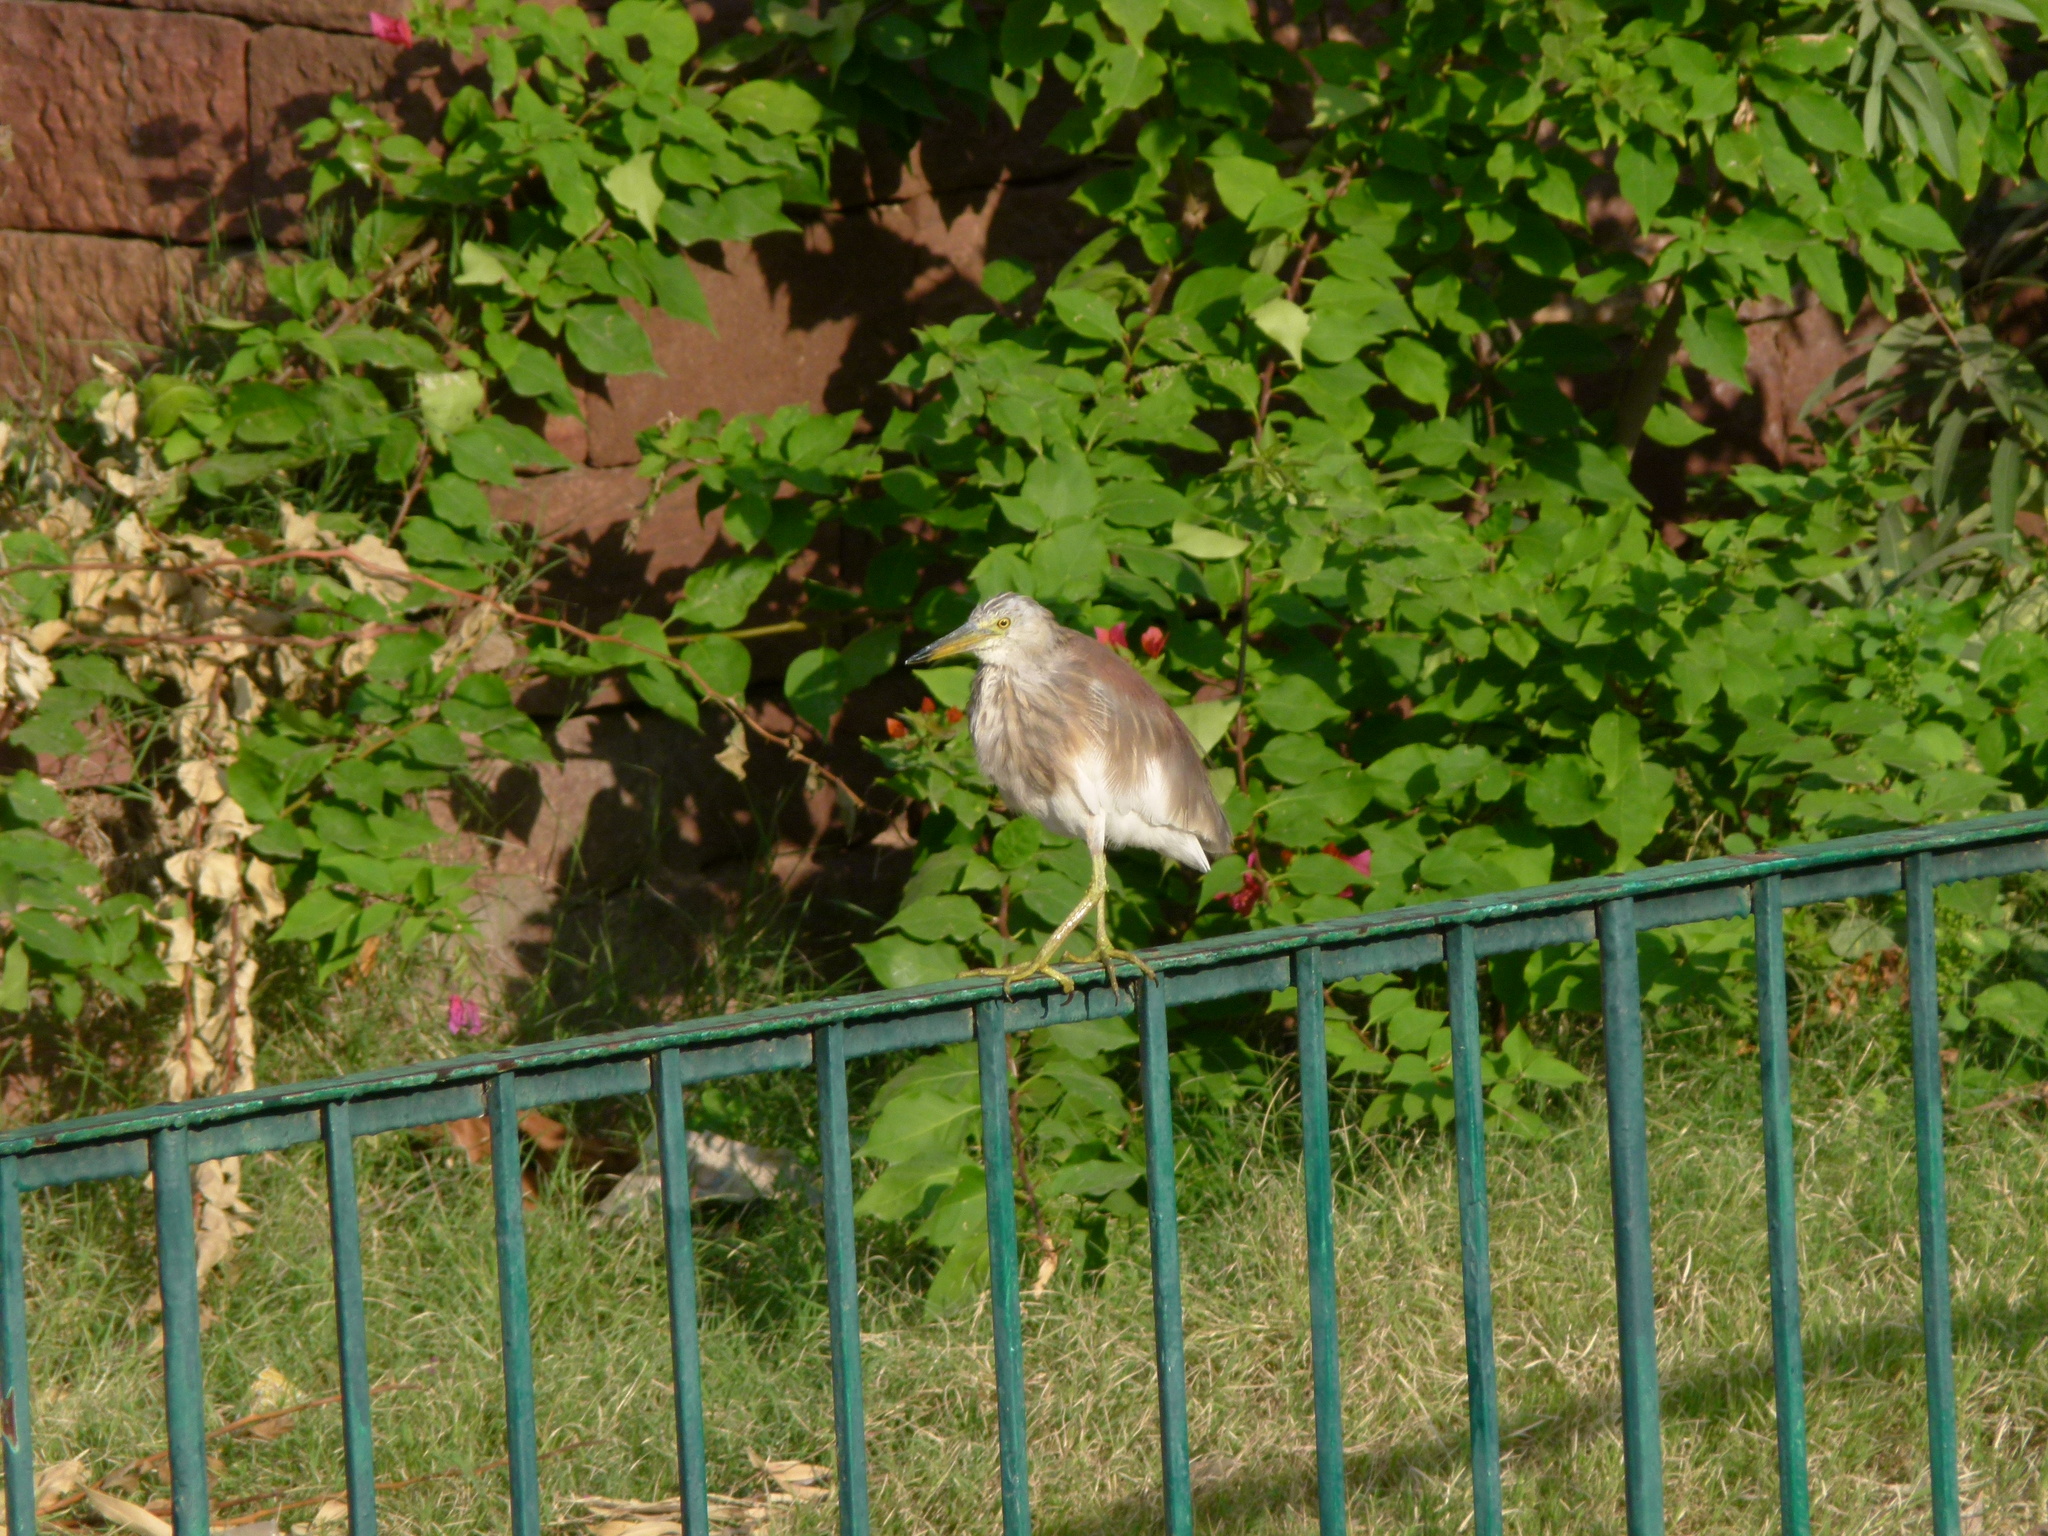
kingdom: Animalia
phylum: Chordata
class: Aves
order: Pelecaniformes
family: Ardeidae
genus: Ardeola
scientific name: Ardeola grayii
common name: Indian pond heron
